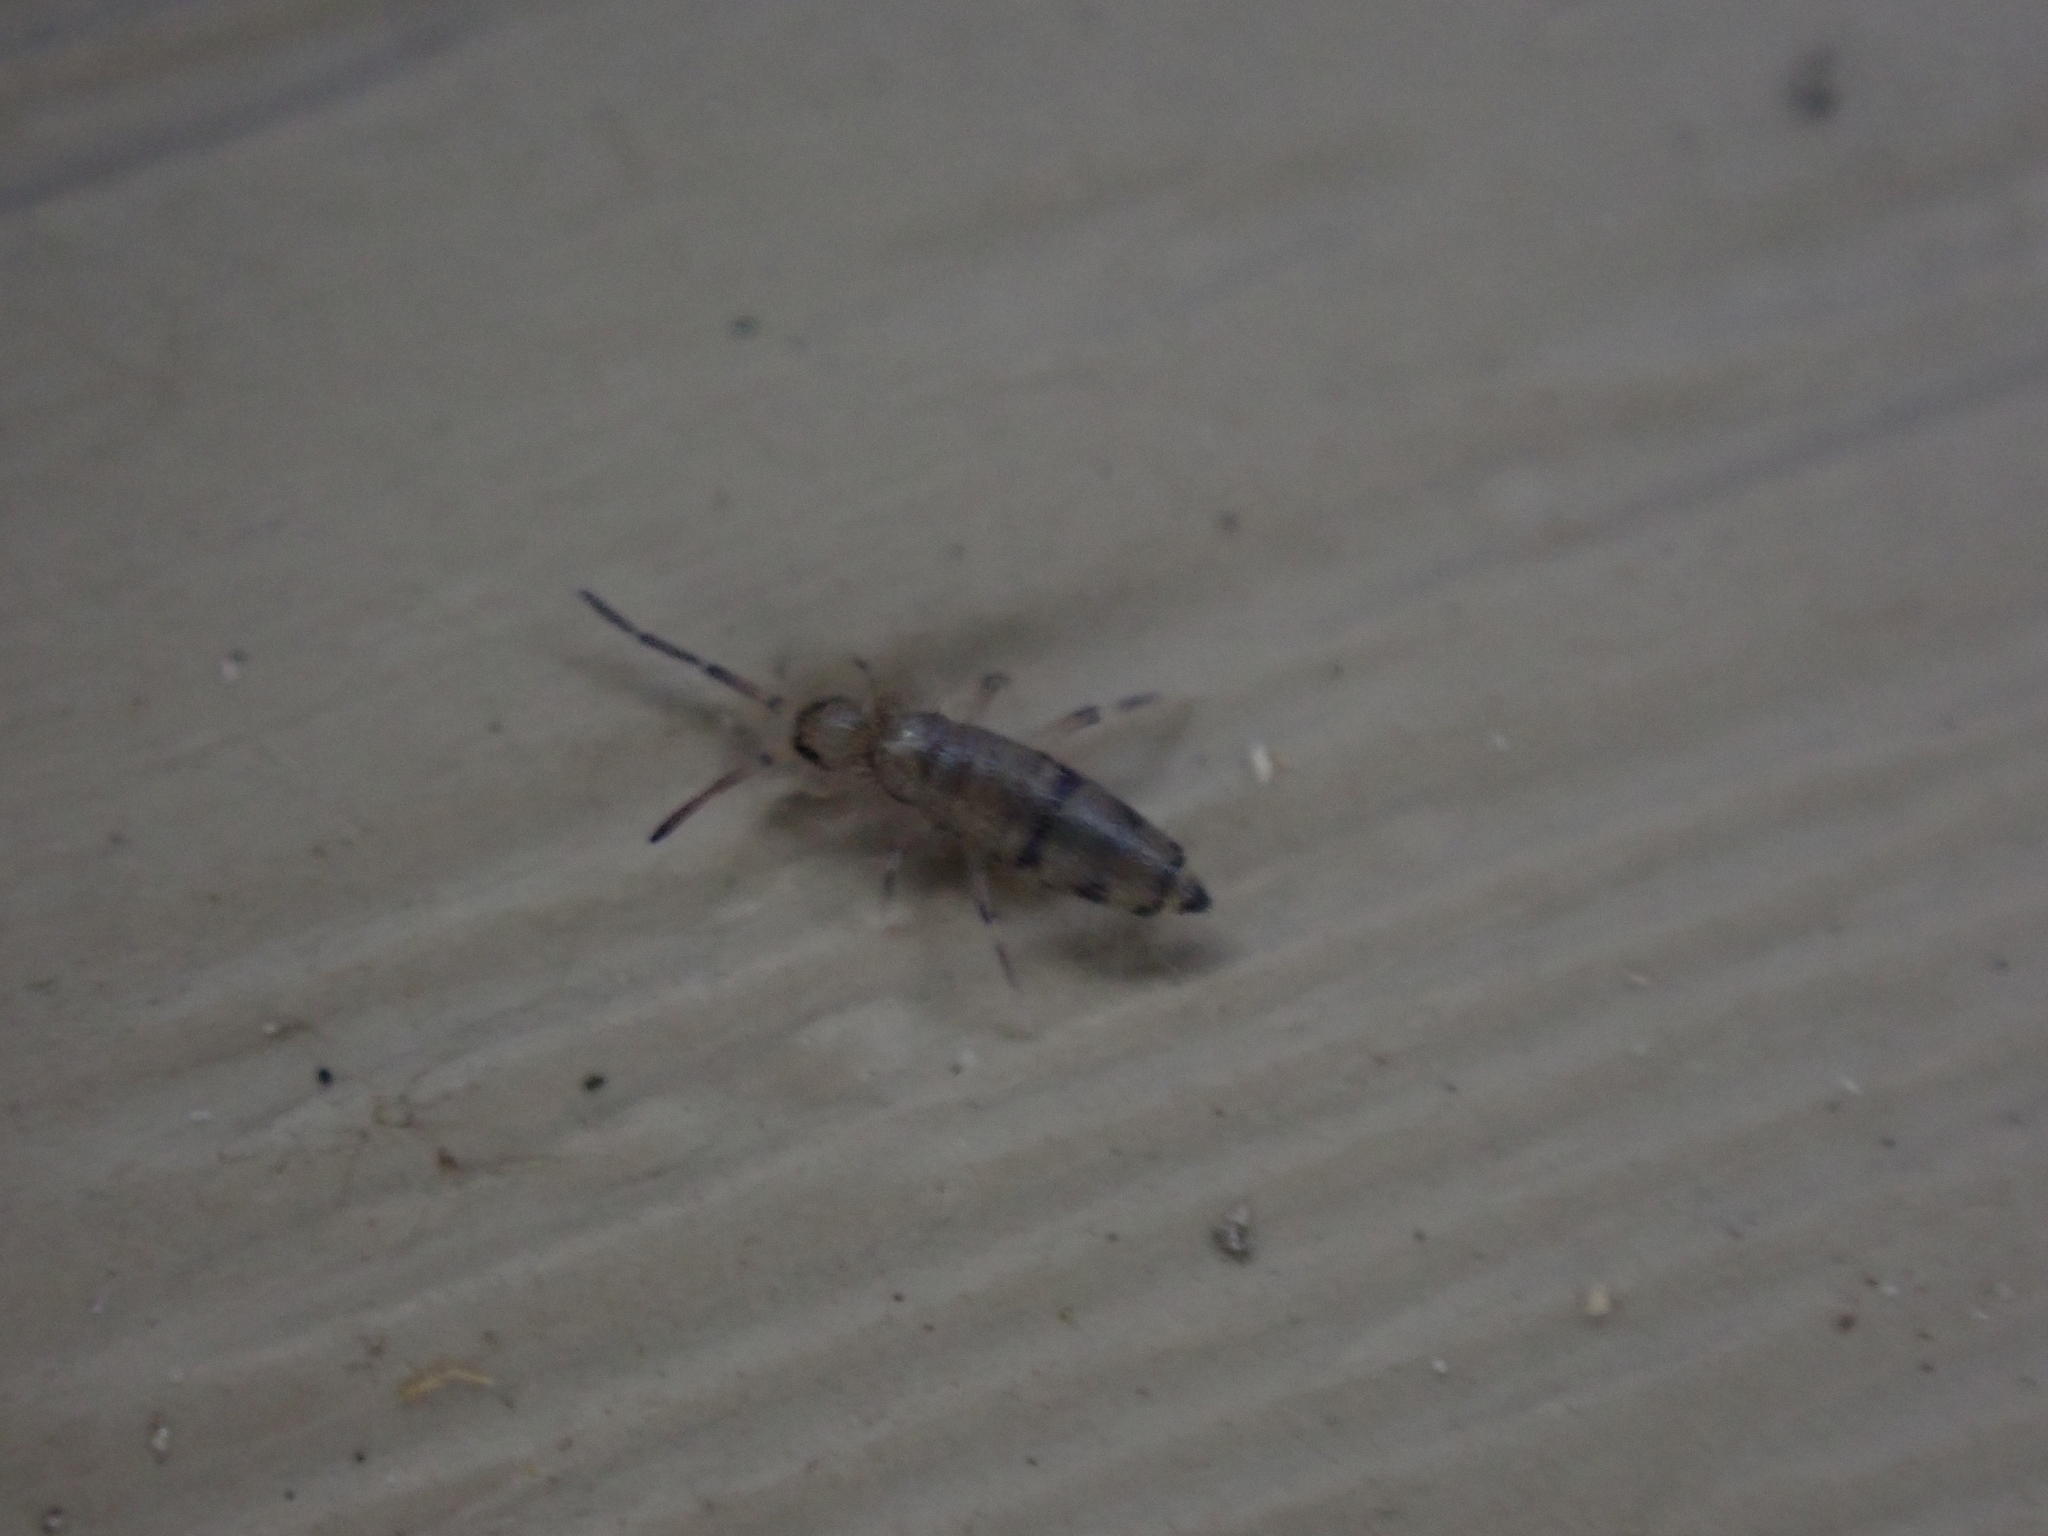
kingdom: Animalia
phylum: Arthropoda
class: Collembola
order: Entomobryomorpha
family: Entomobryidae
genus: Willowsia
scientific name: Willowsia nigromaculata
